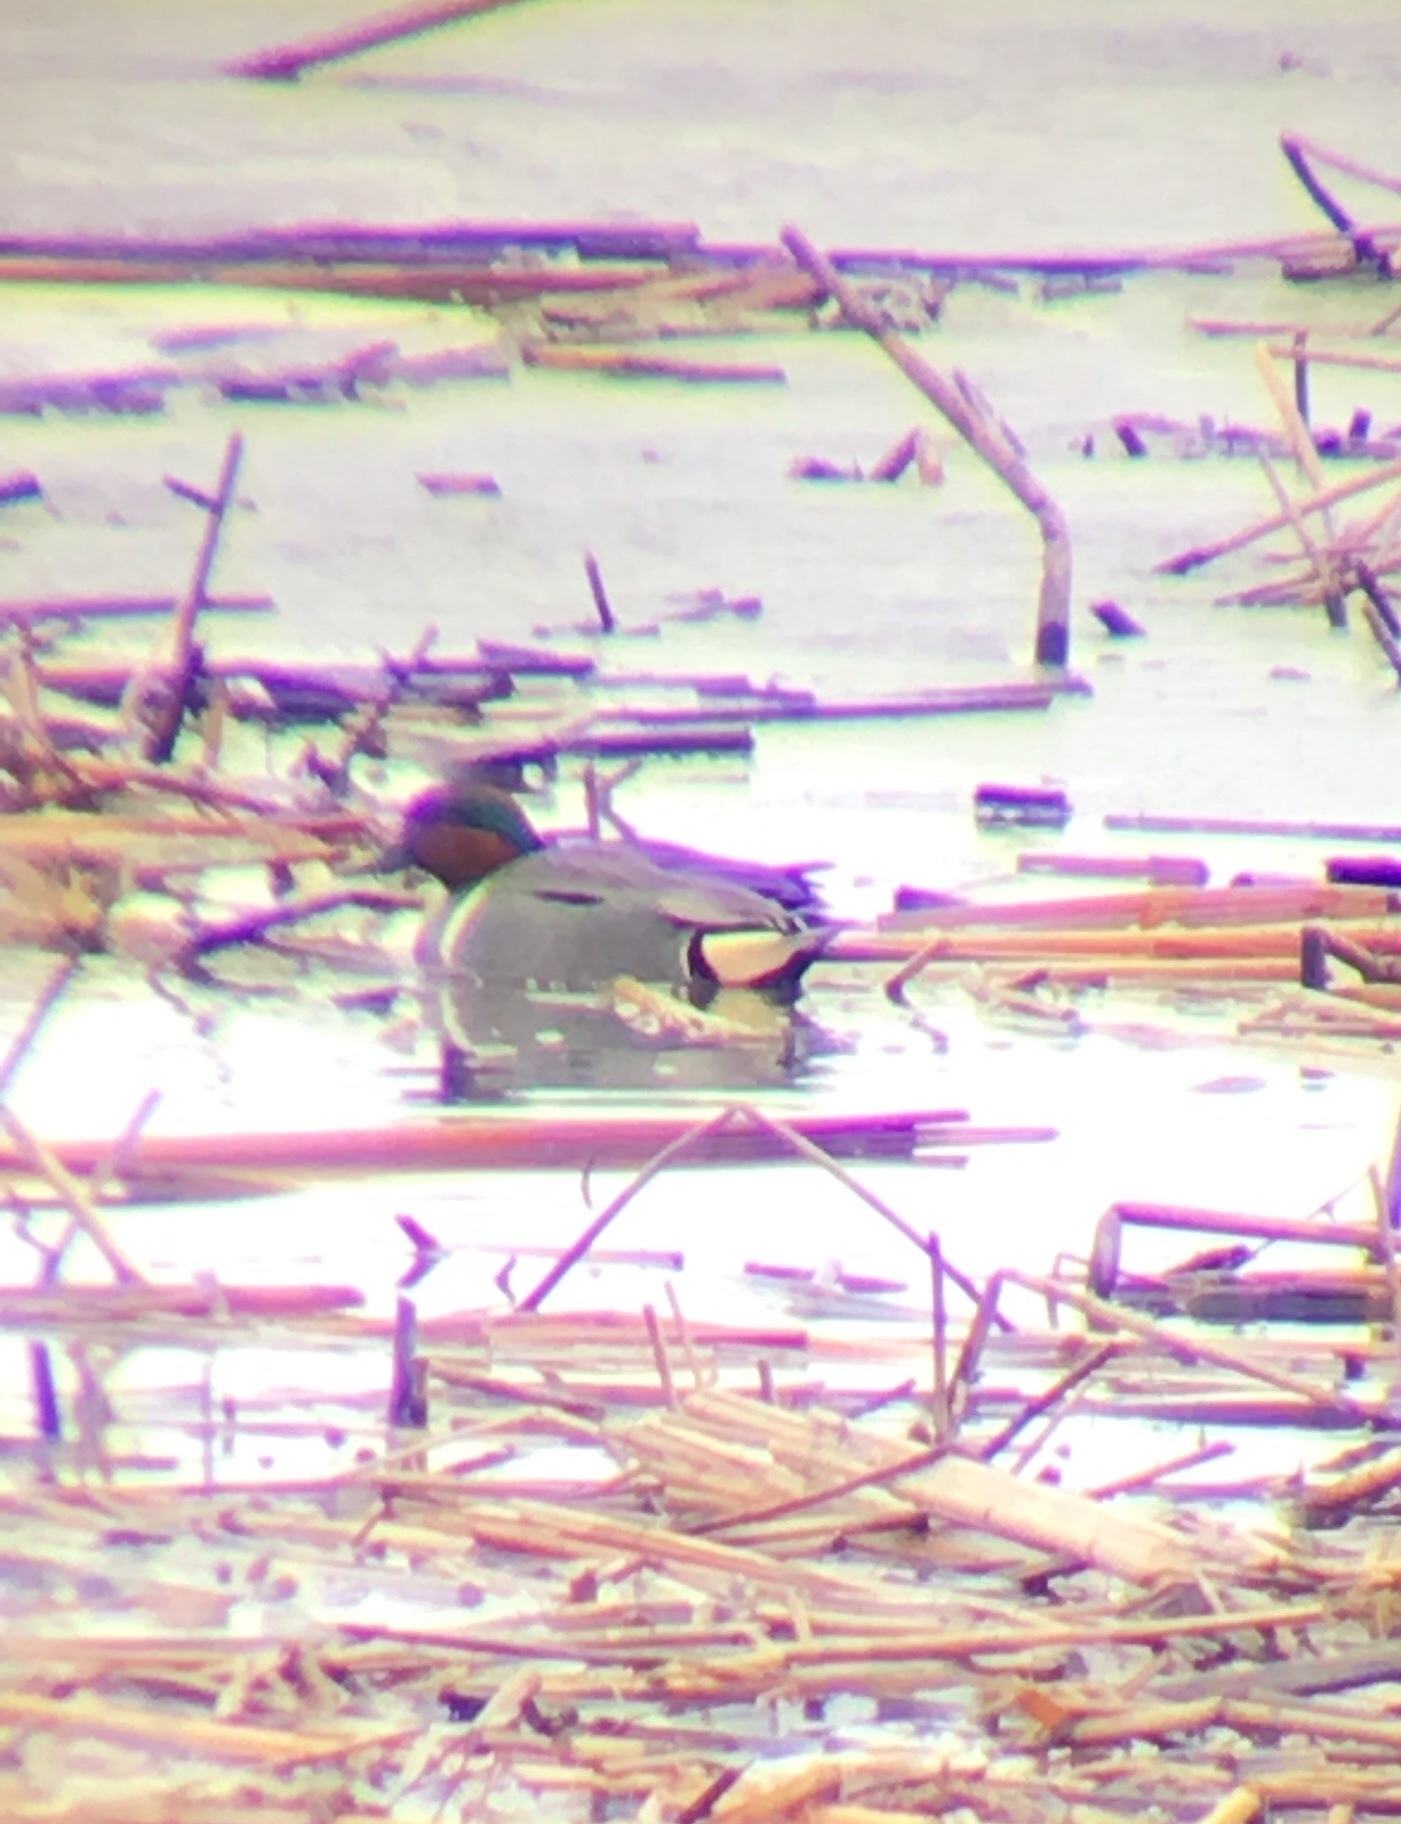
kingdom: Animalia
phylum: Chordata
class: Aves
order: Anseriformes
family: Anatidae
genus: Anas
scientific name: Anas crecca
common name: Eurasian teal
